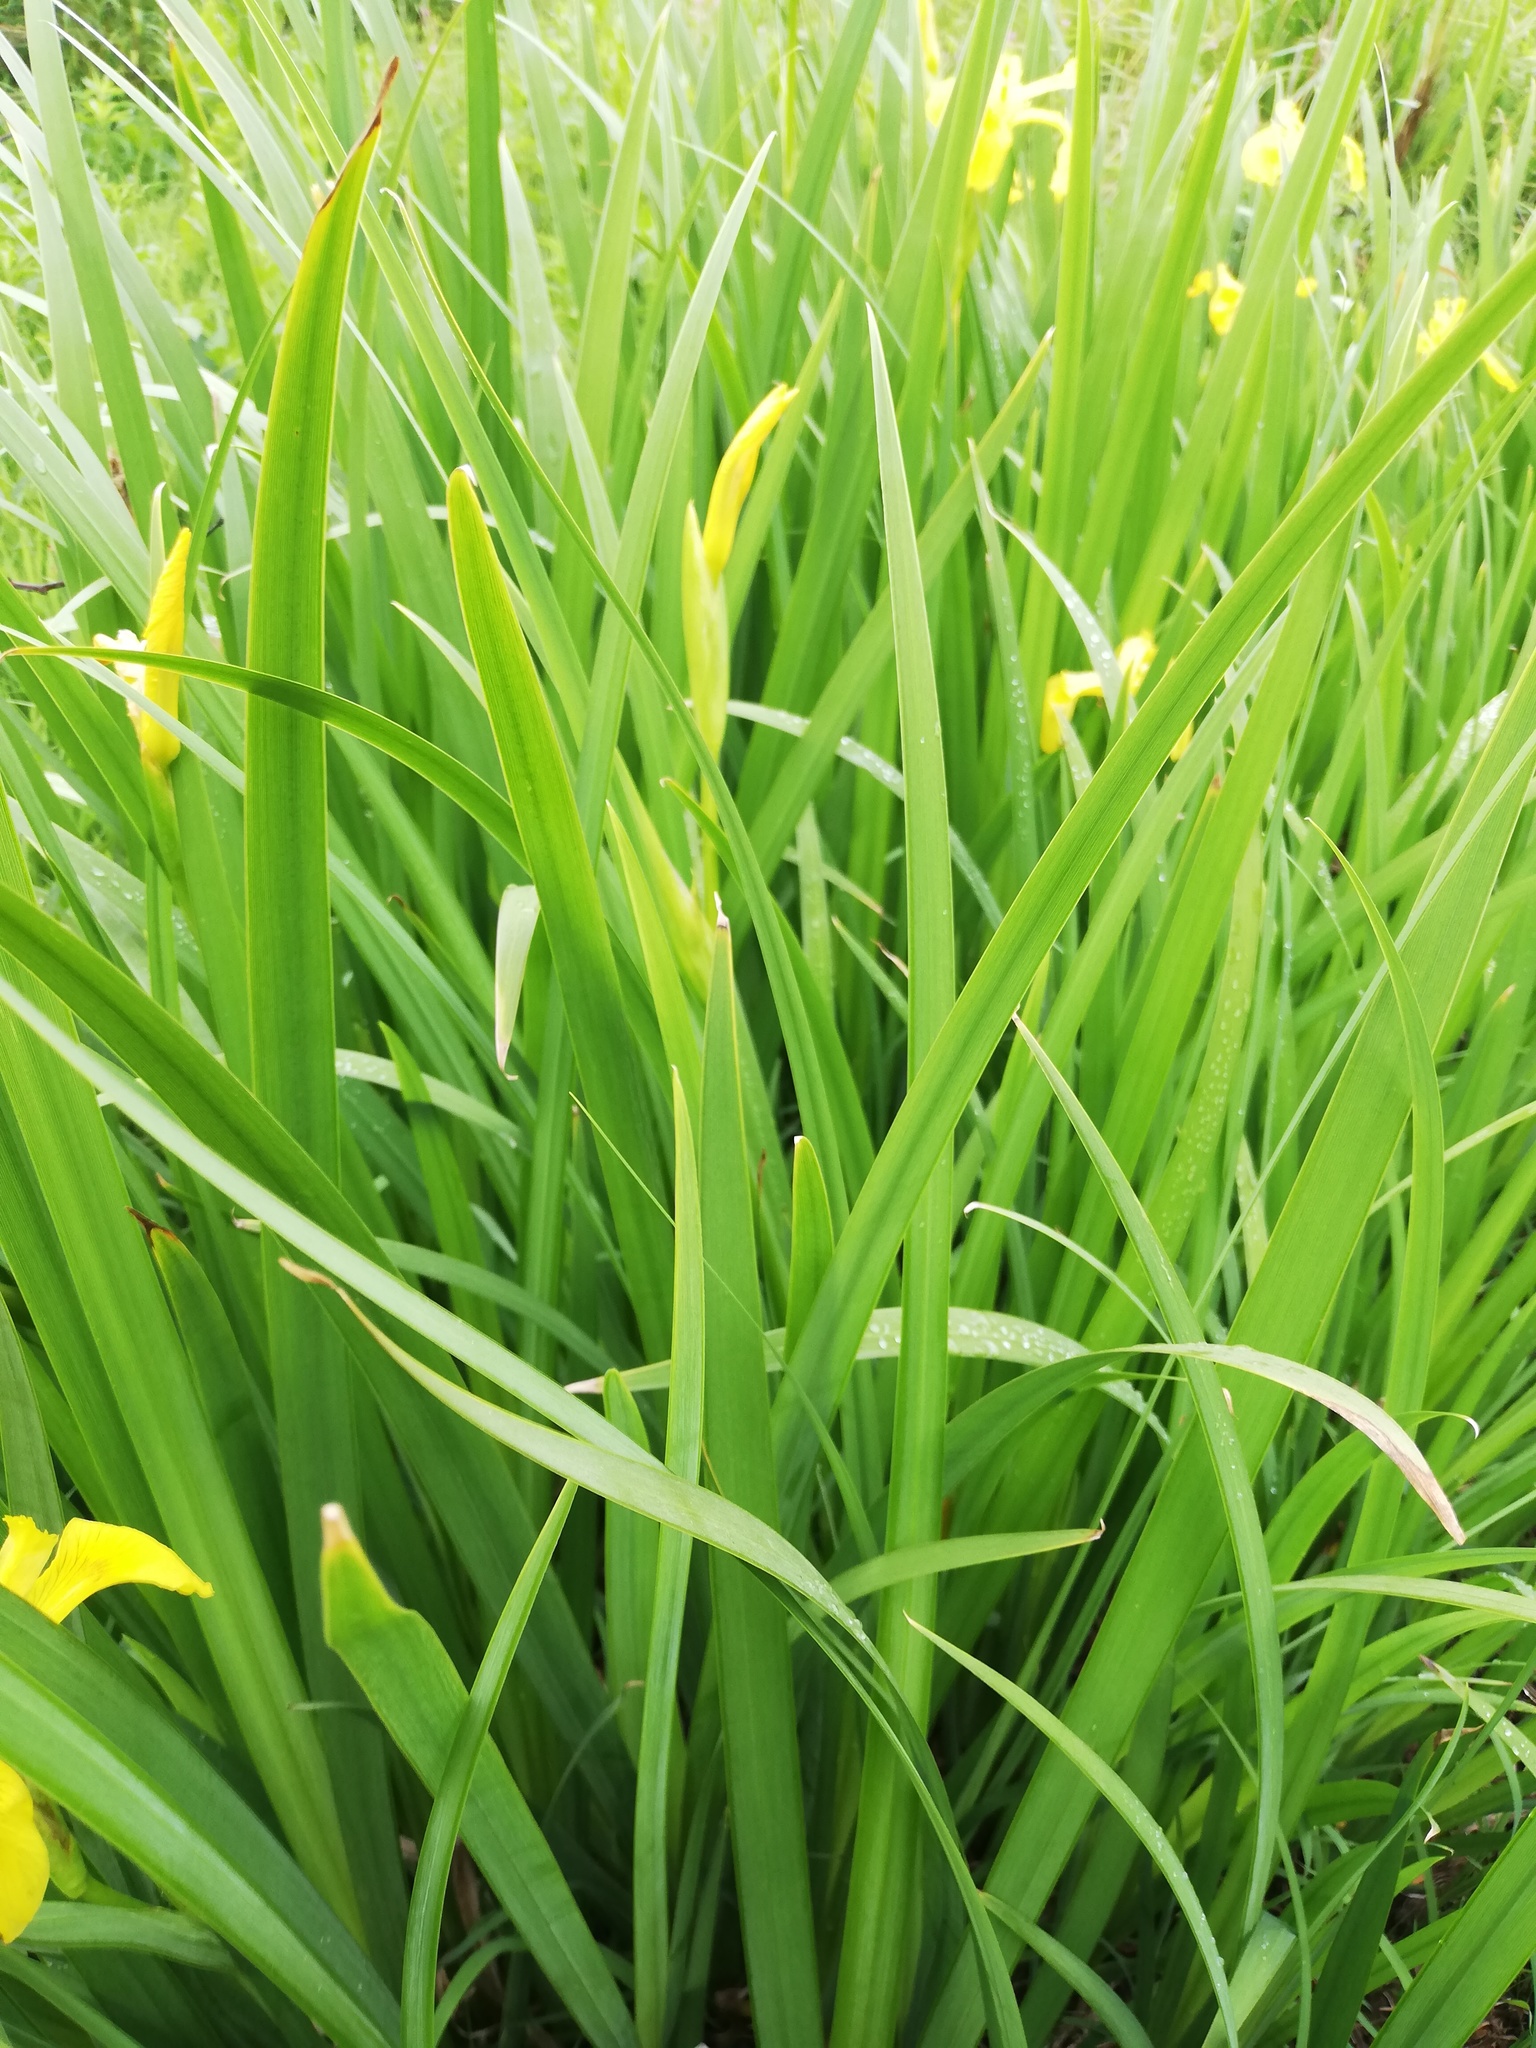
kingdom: Plantae
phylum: Tracheophyta
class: Liliopsida
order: Asparagales
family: Iridaceae
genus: Iris
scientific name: Iris pseudacorus
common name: Yellow flag
